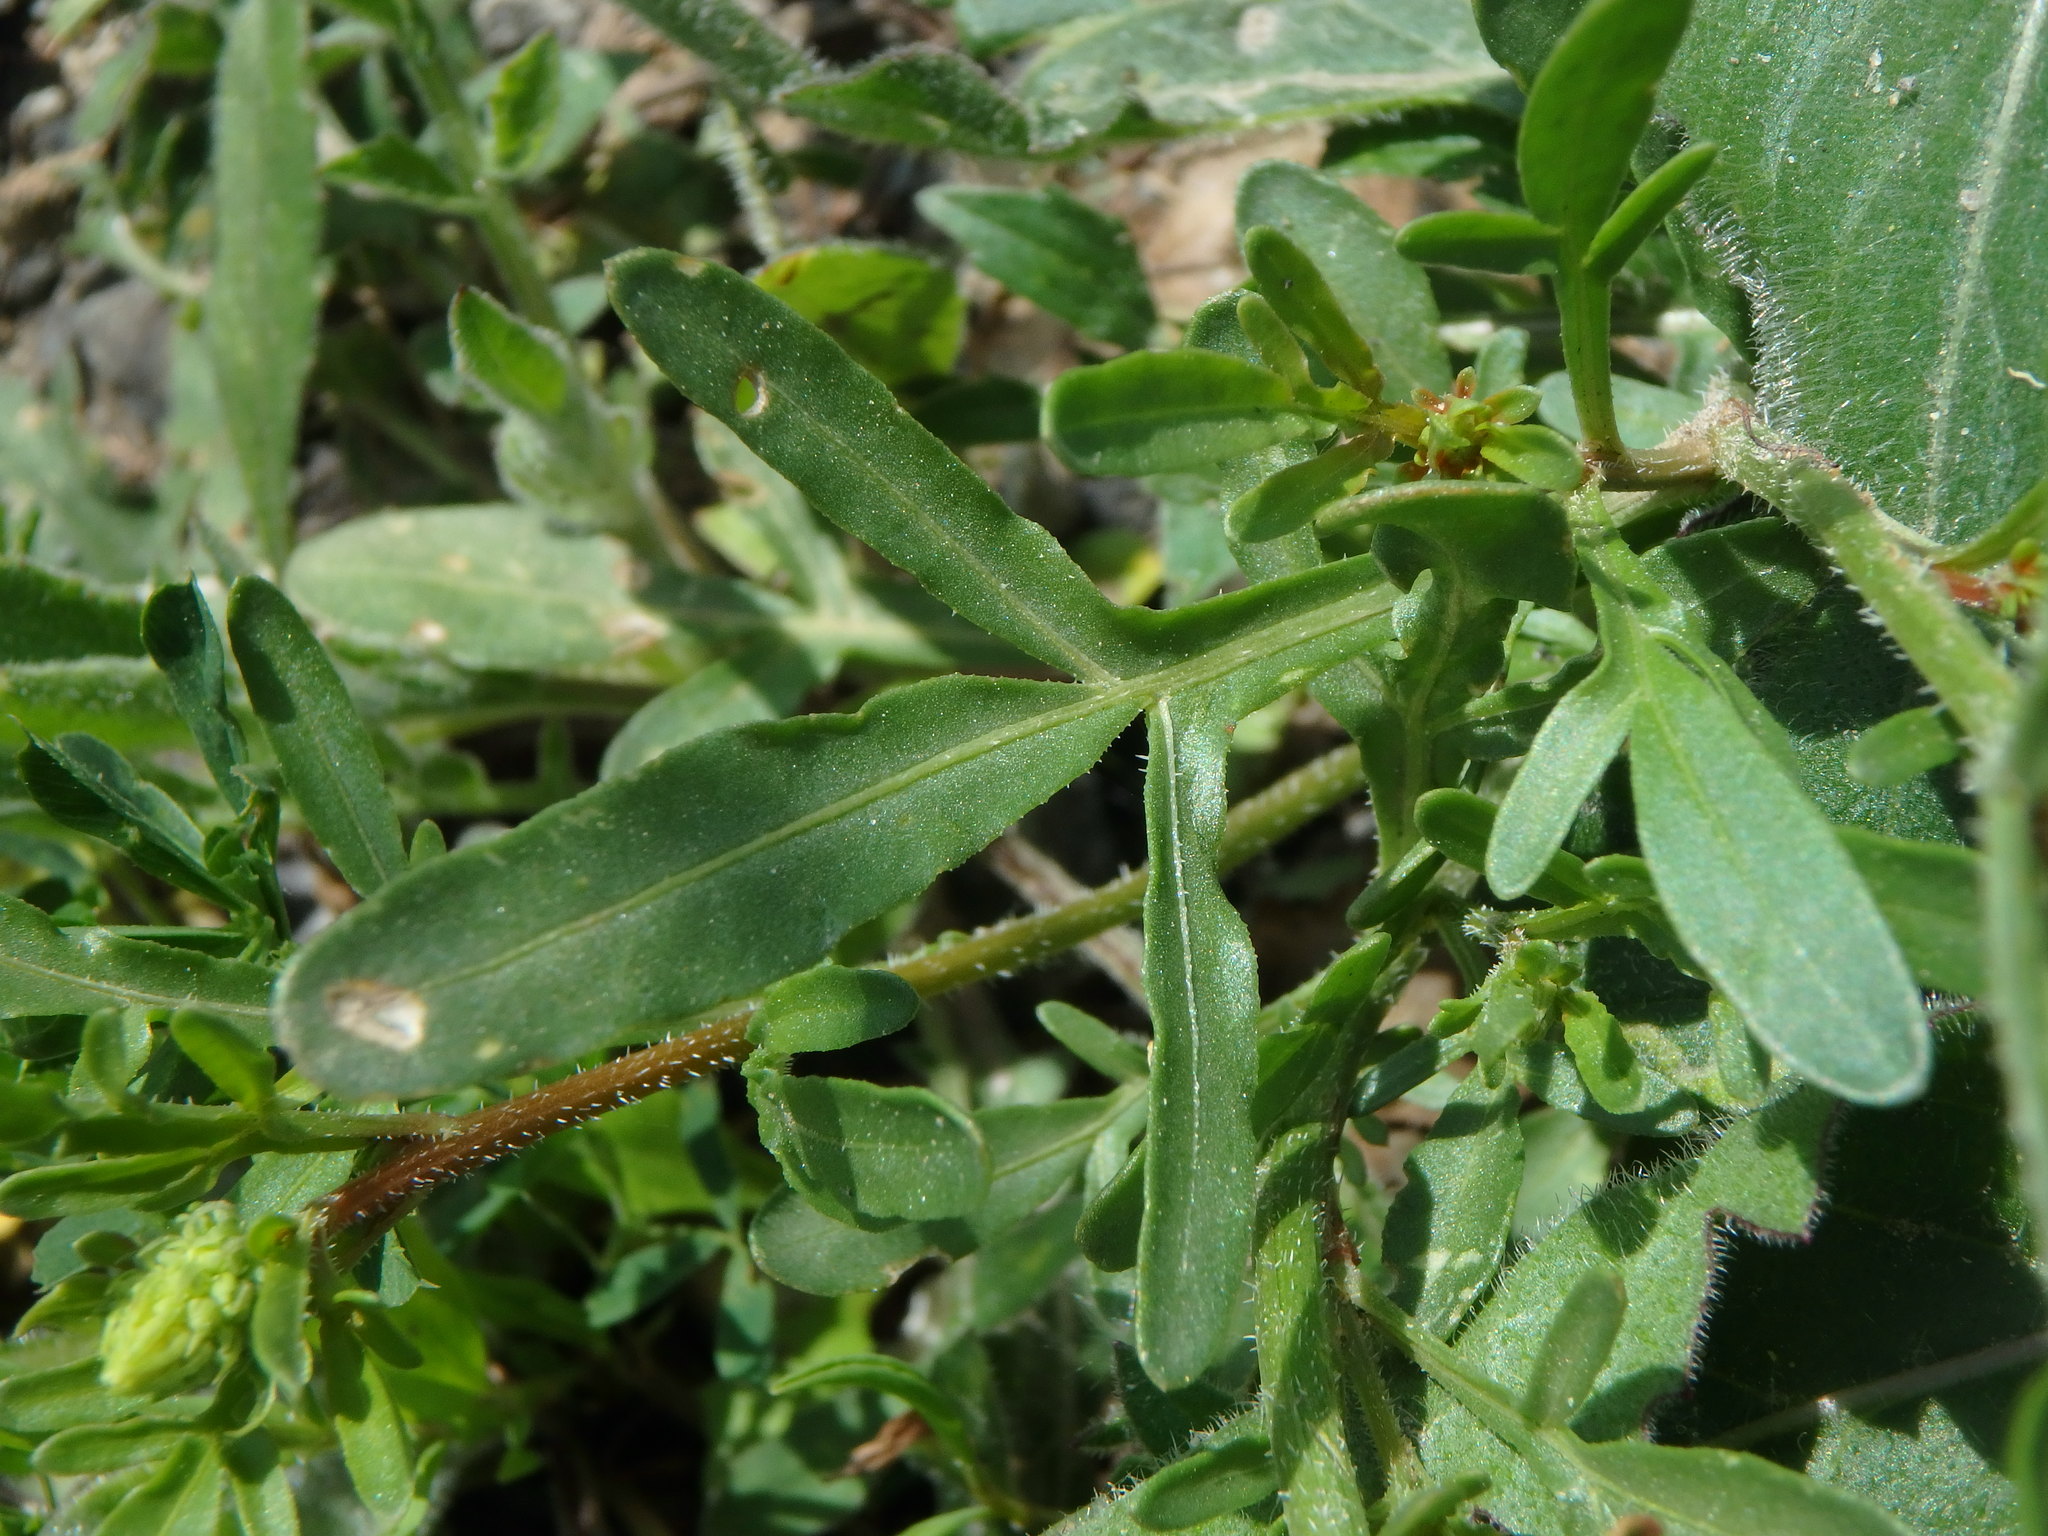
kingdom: Plantae
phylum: Tracheophyta
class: Magnoliopsida
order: Brassicales
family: Resedaceae
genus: Reseda
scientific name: Reseda lutea
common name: Wild mignonette
